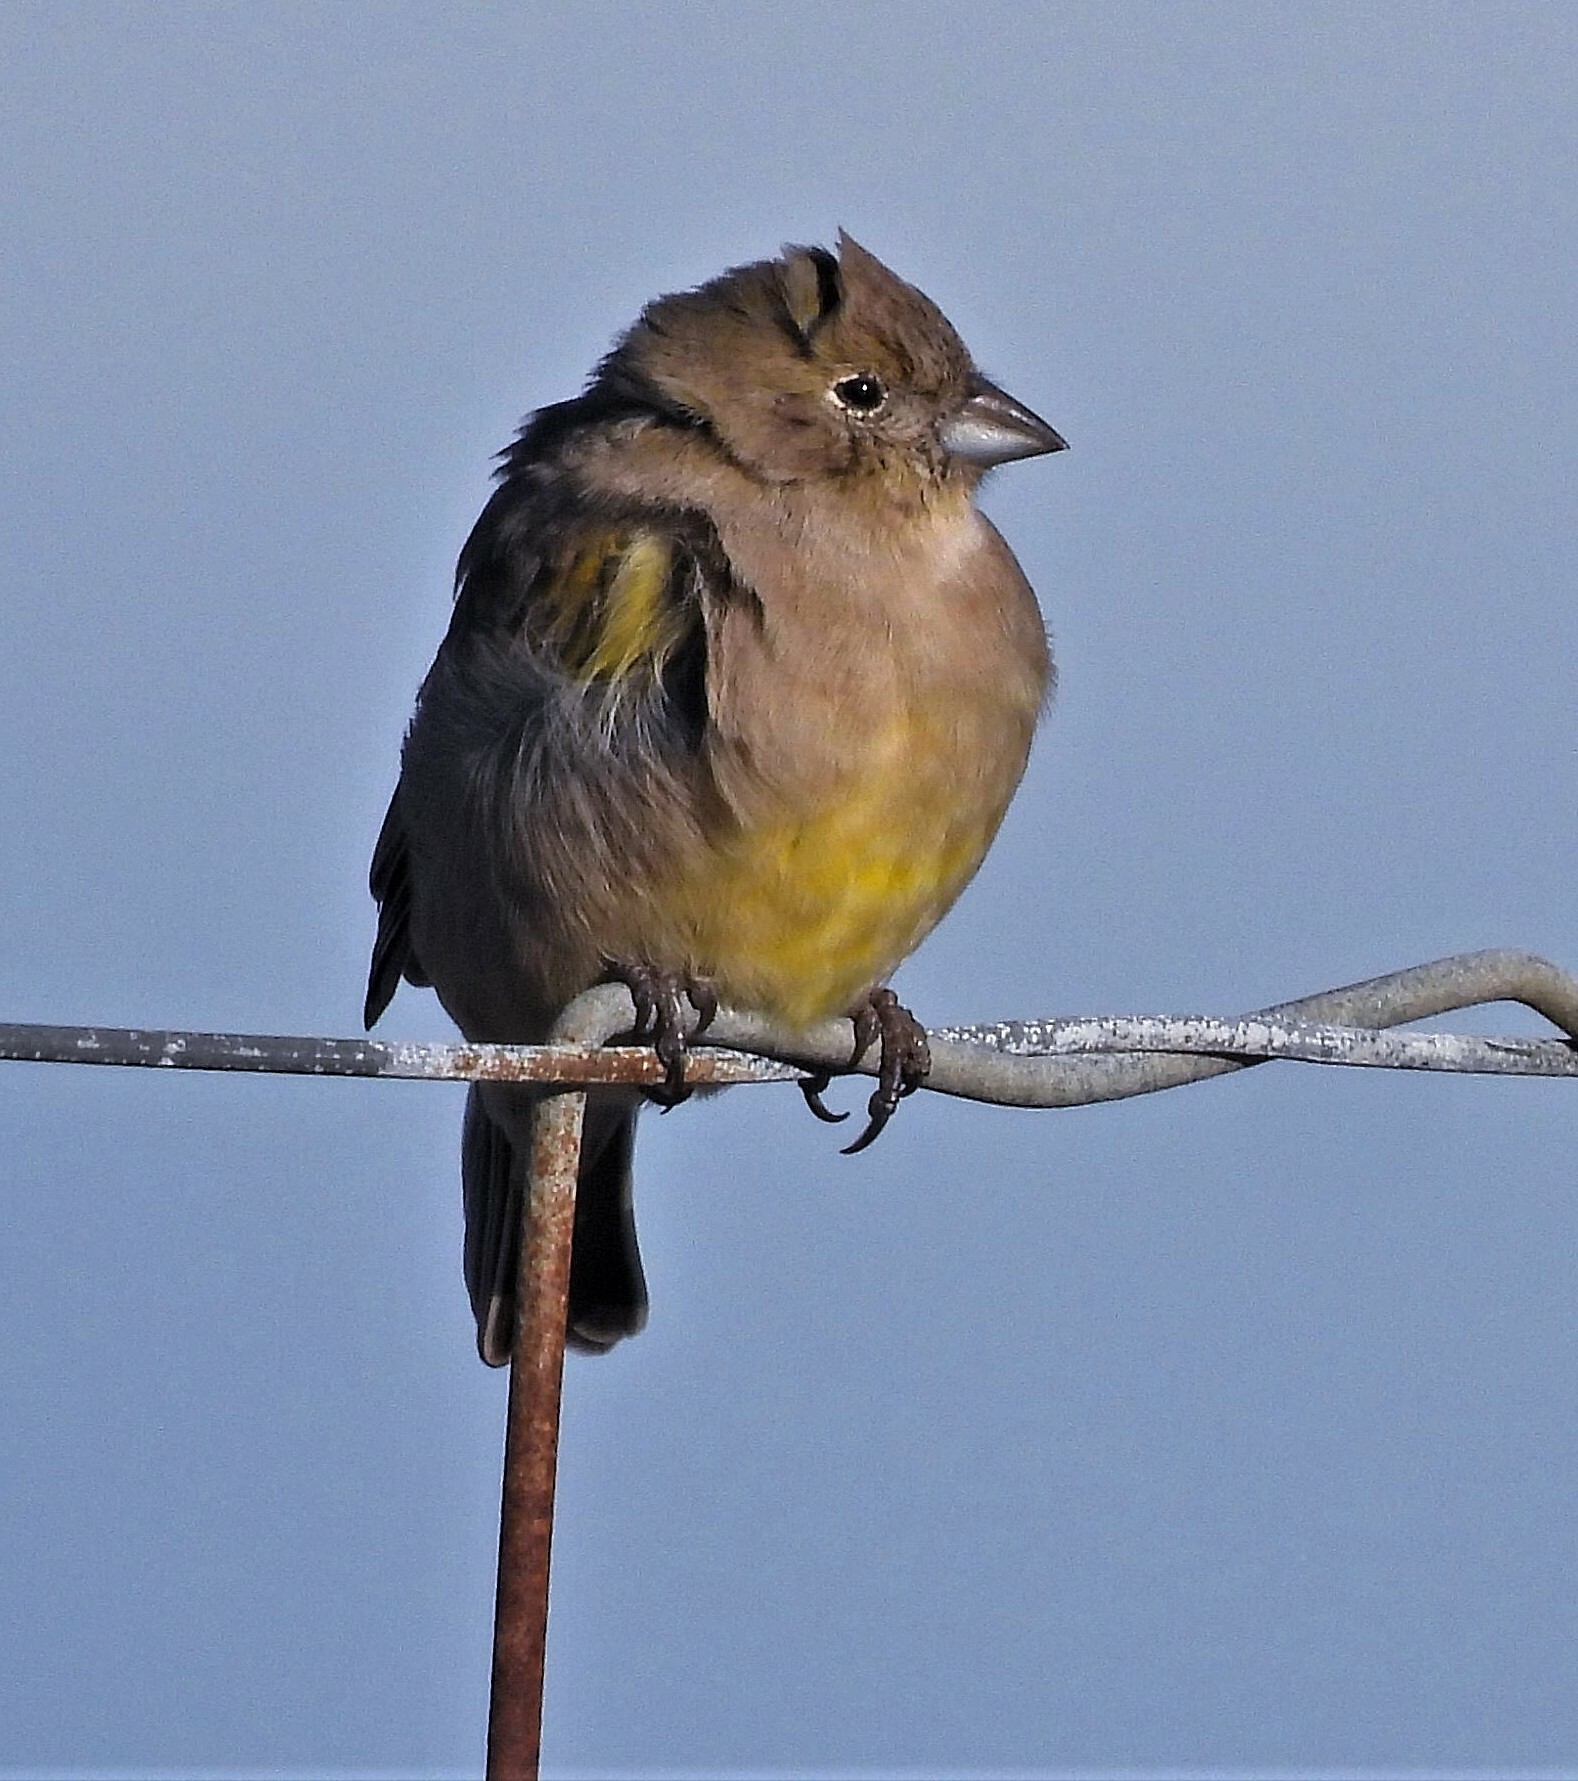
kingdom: Animalia
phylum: Chordata
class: Aves
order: Passeriformes
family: Thraupidae
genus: Sicalis
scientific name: Sicalis lebruni
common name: Patagonian yellow finch
